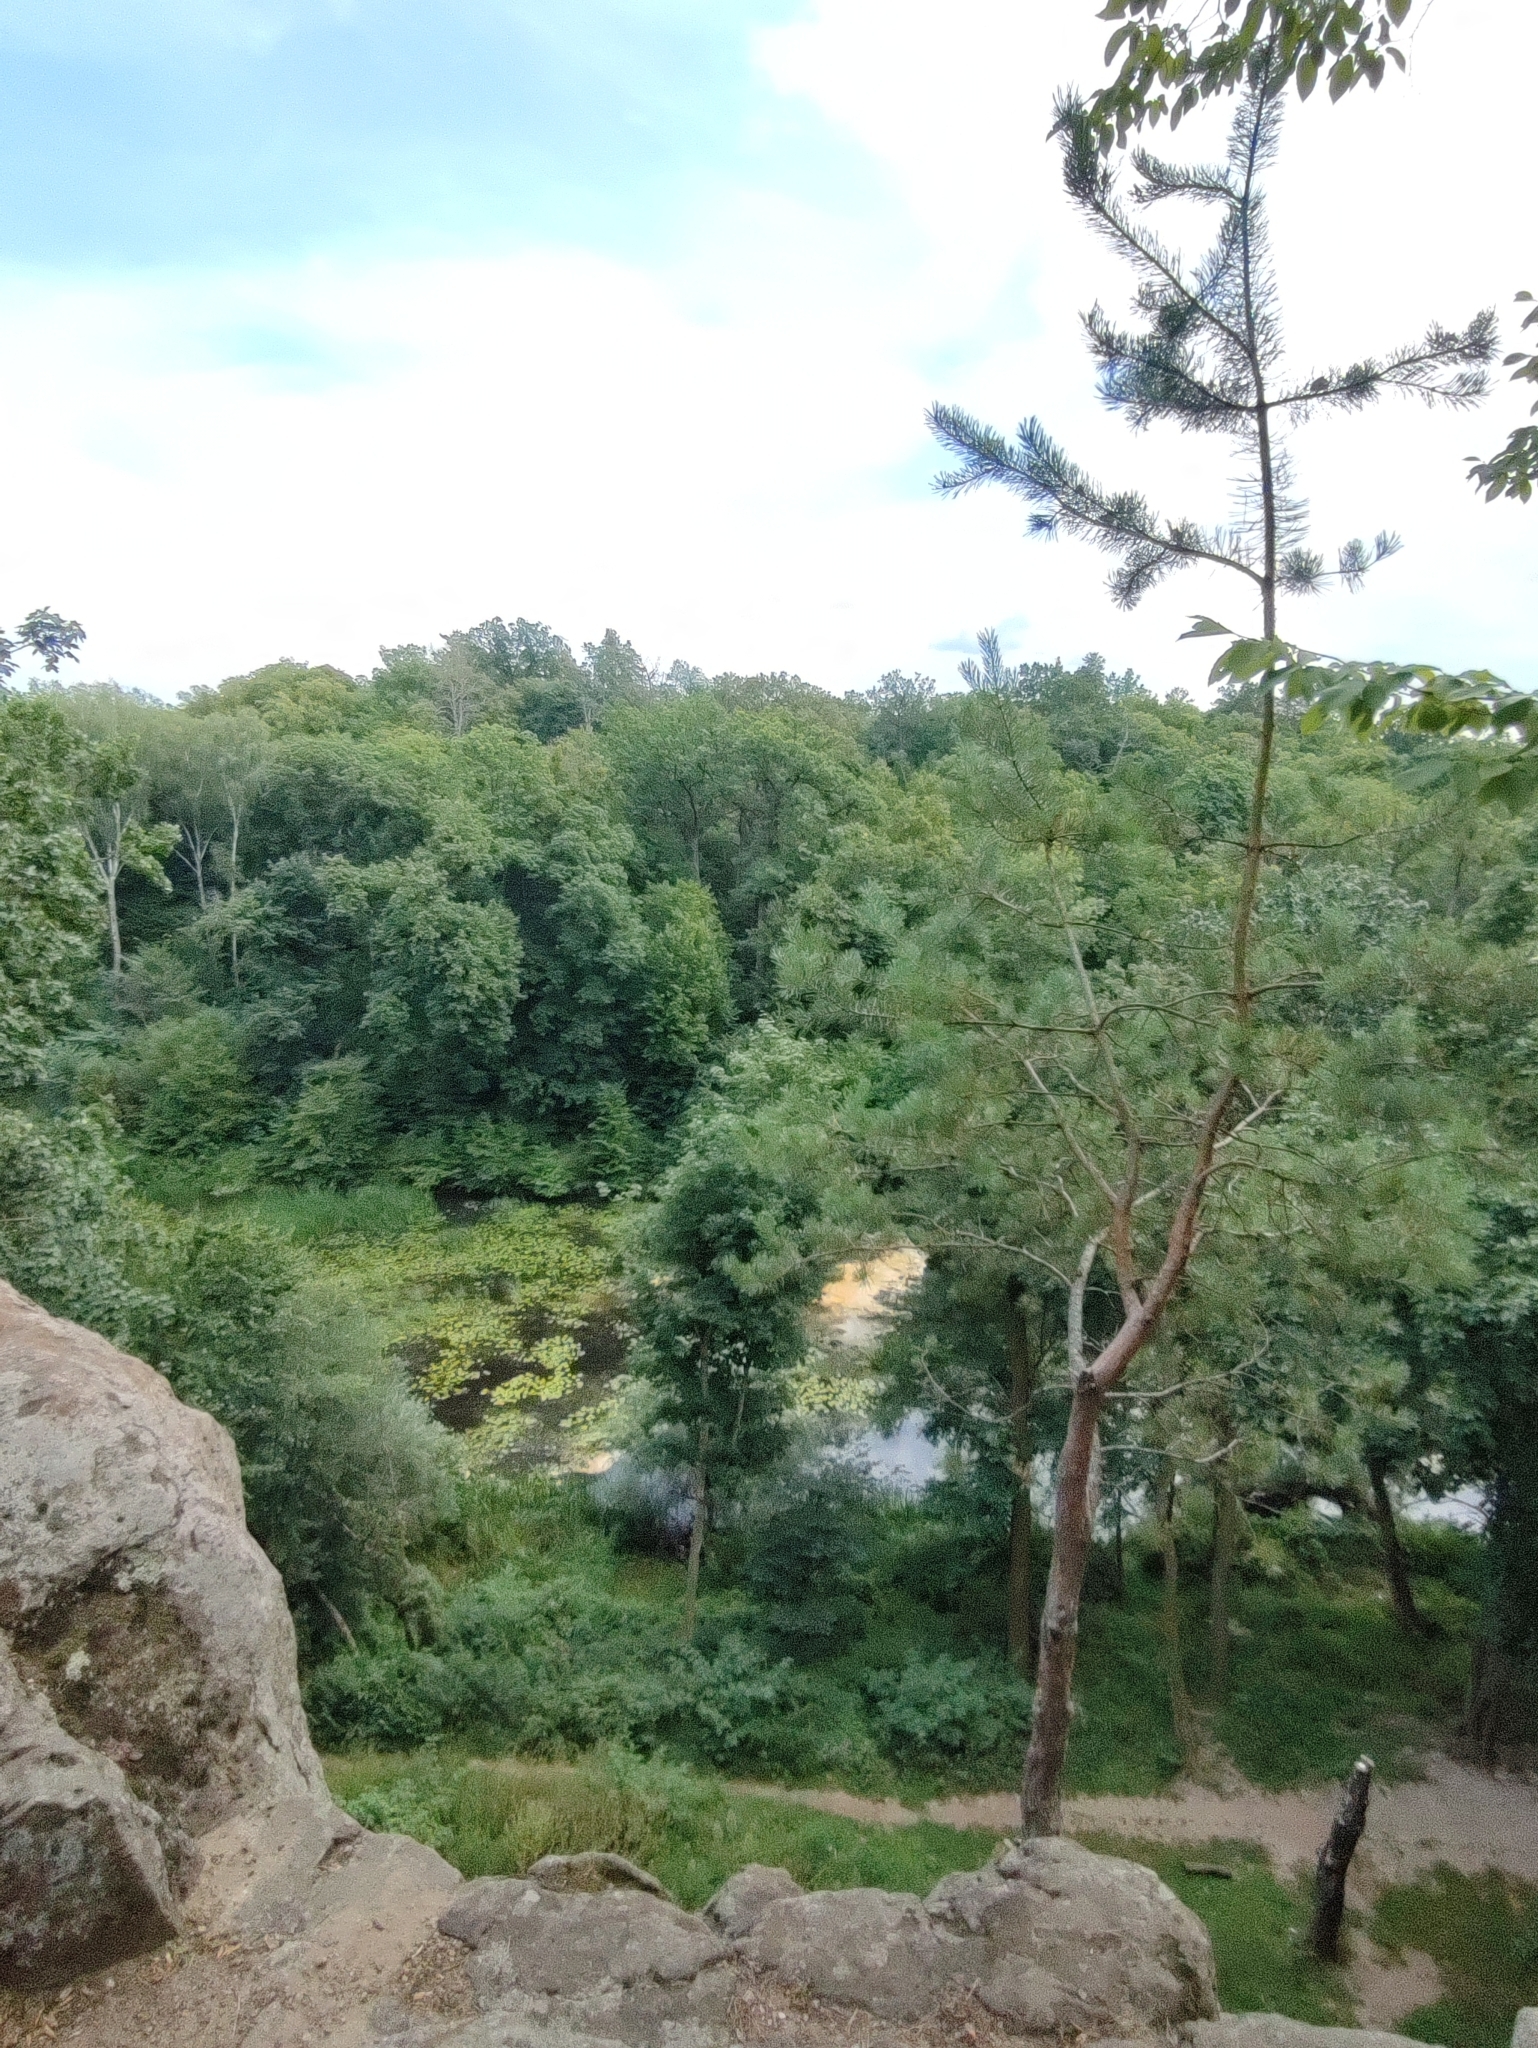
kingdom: Plantae
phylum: Tracheophyta
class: Pinopsida
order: Pinales
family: Pinaceae
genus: Pinus
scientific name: Pinus sylvestris
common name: Scots pine
